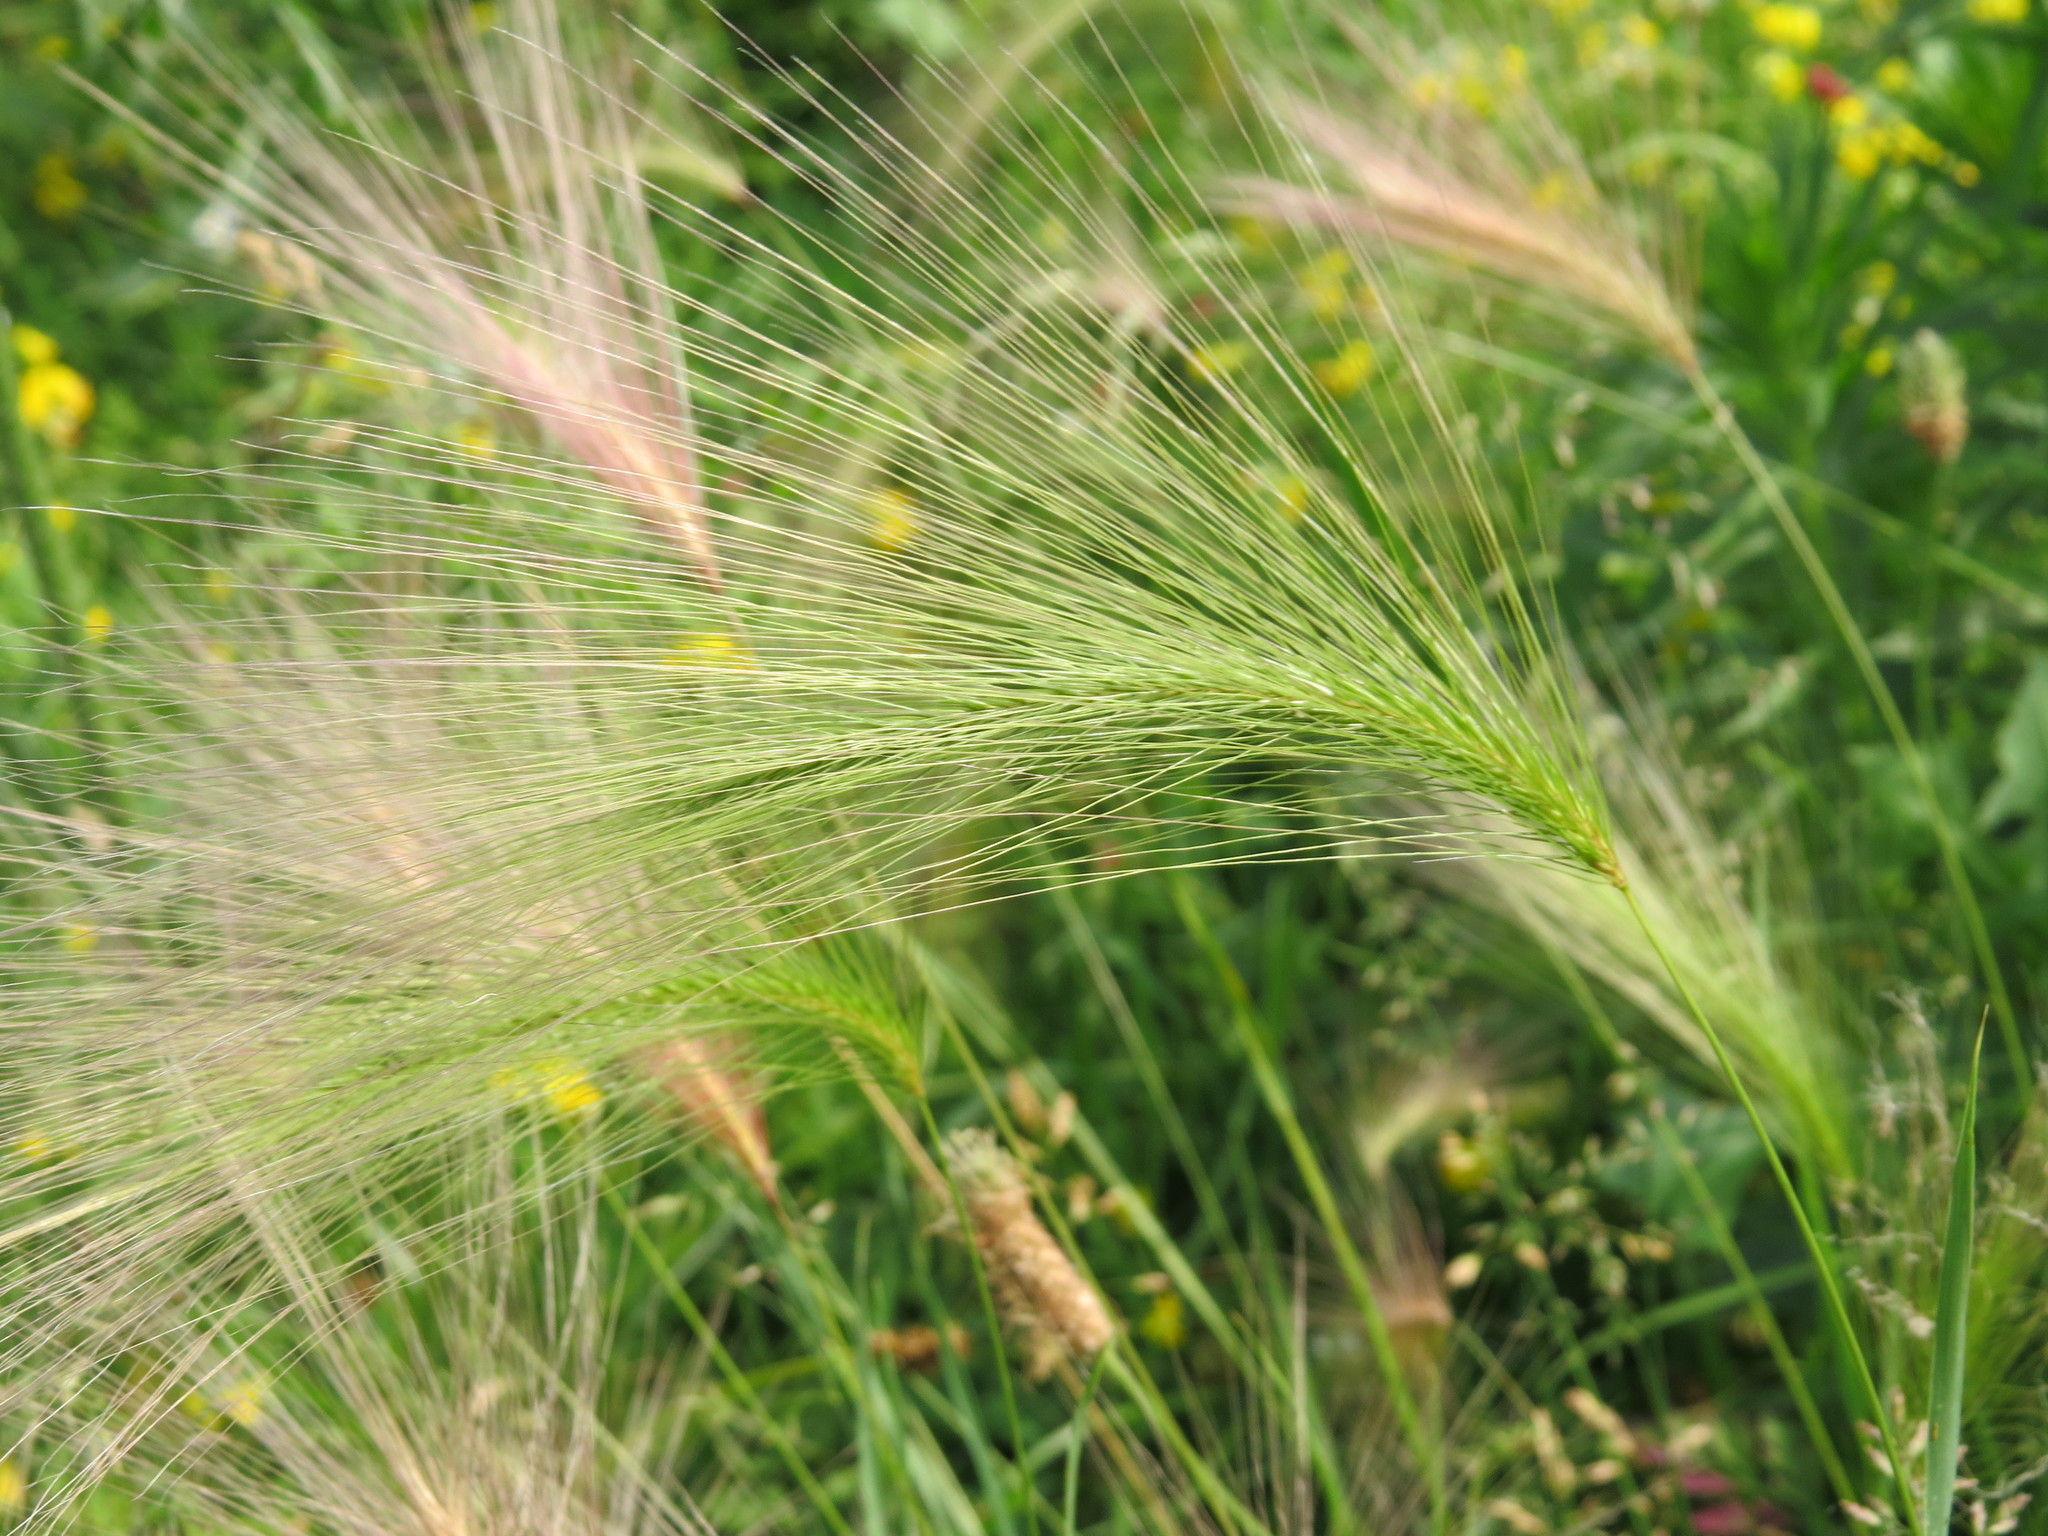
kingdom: Plantae
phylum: Tracheophyta
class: Liliopsida
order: Poales
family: Poaceae
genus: Hordeum
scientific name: Hordeum jubatum
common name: Foxtail barley
